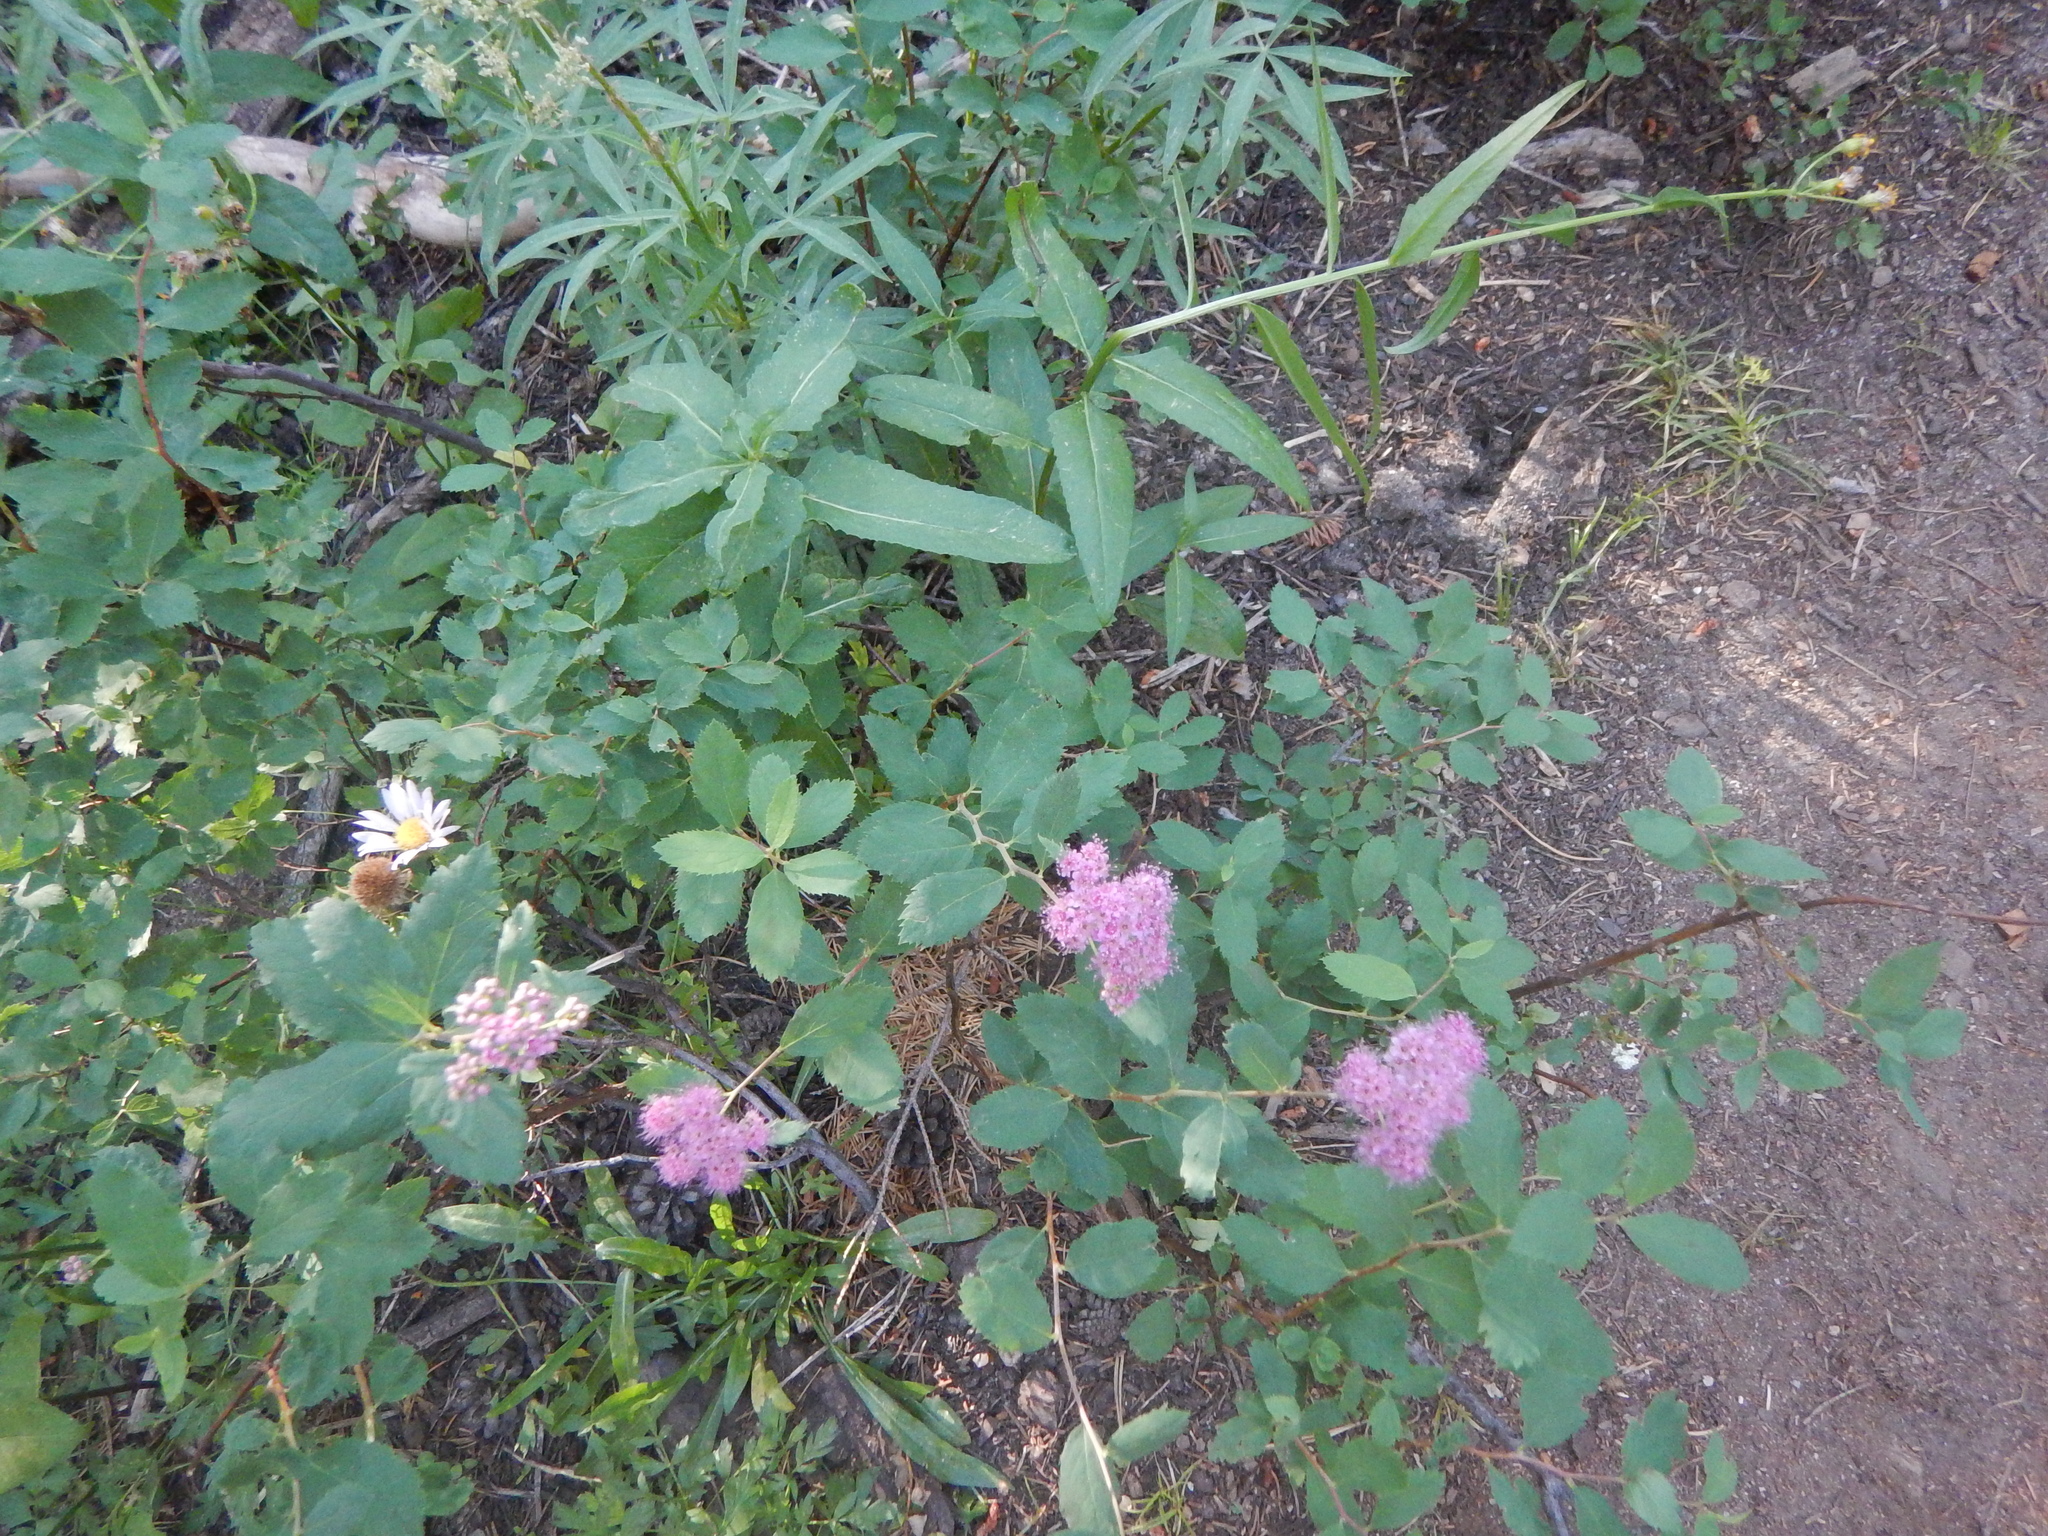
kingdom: Plantae
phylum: Tracheophyta
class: Magnoliopsida
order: Rosales
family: Rosaceae
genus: Spiraea
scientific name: Spiraea splendens
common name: Subalpine meadowsweet
